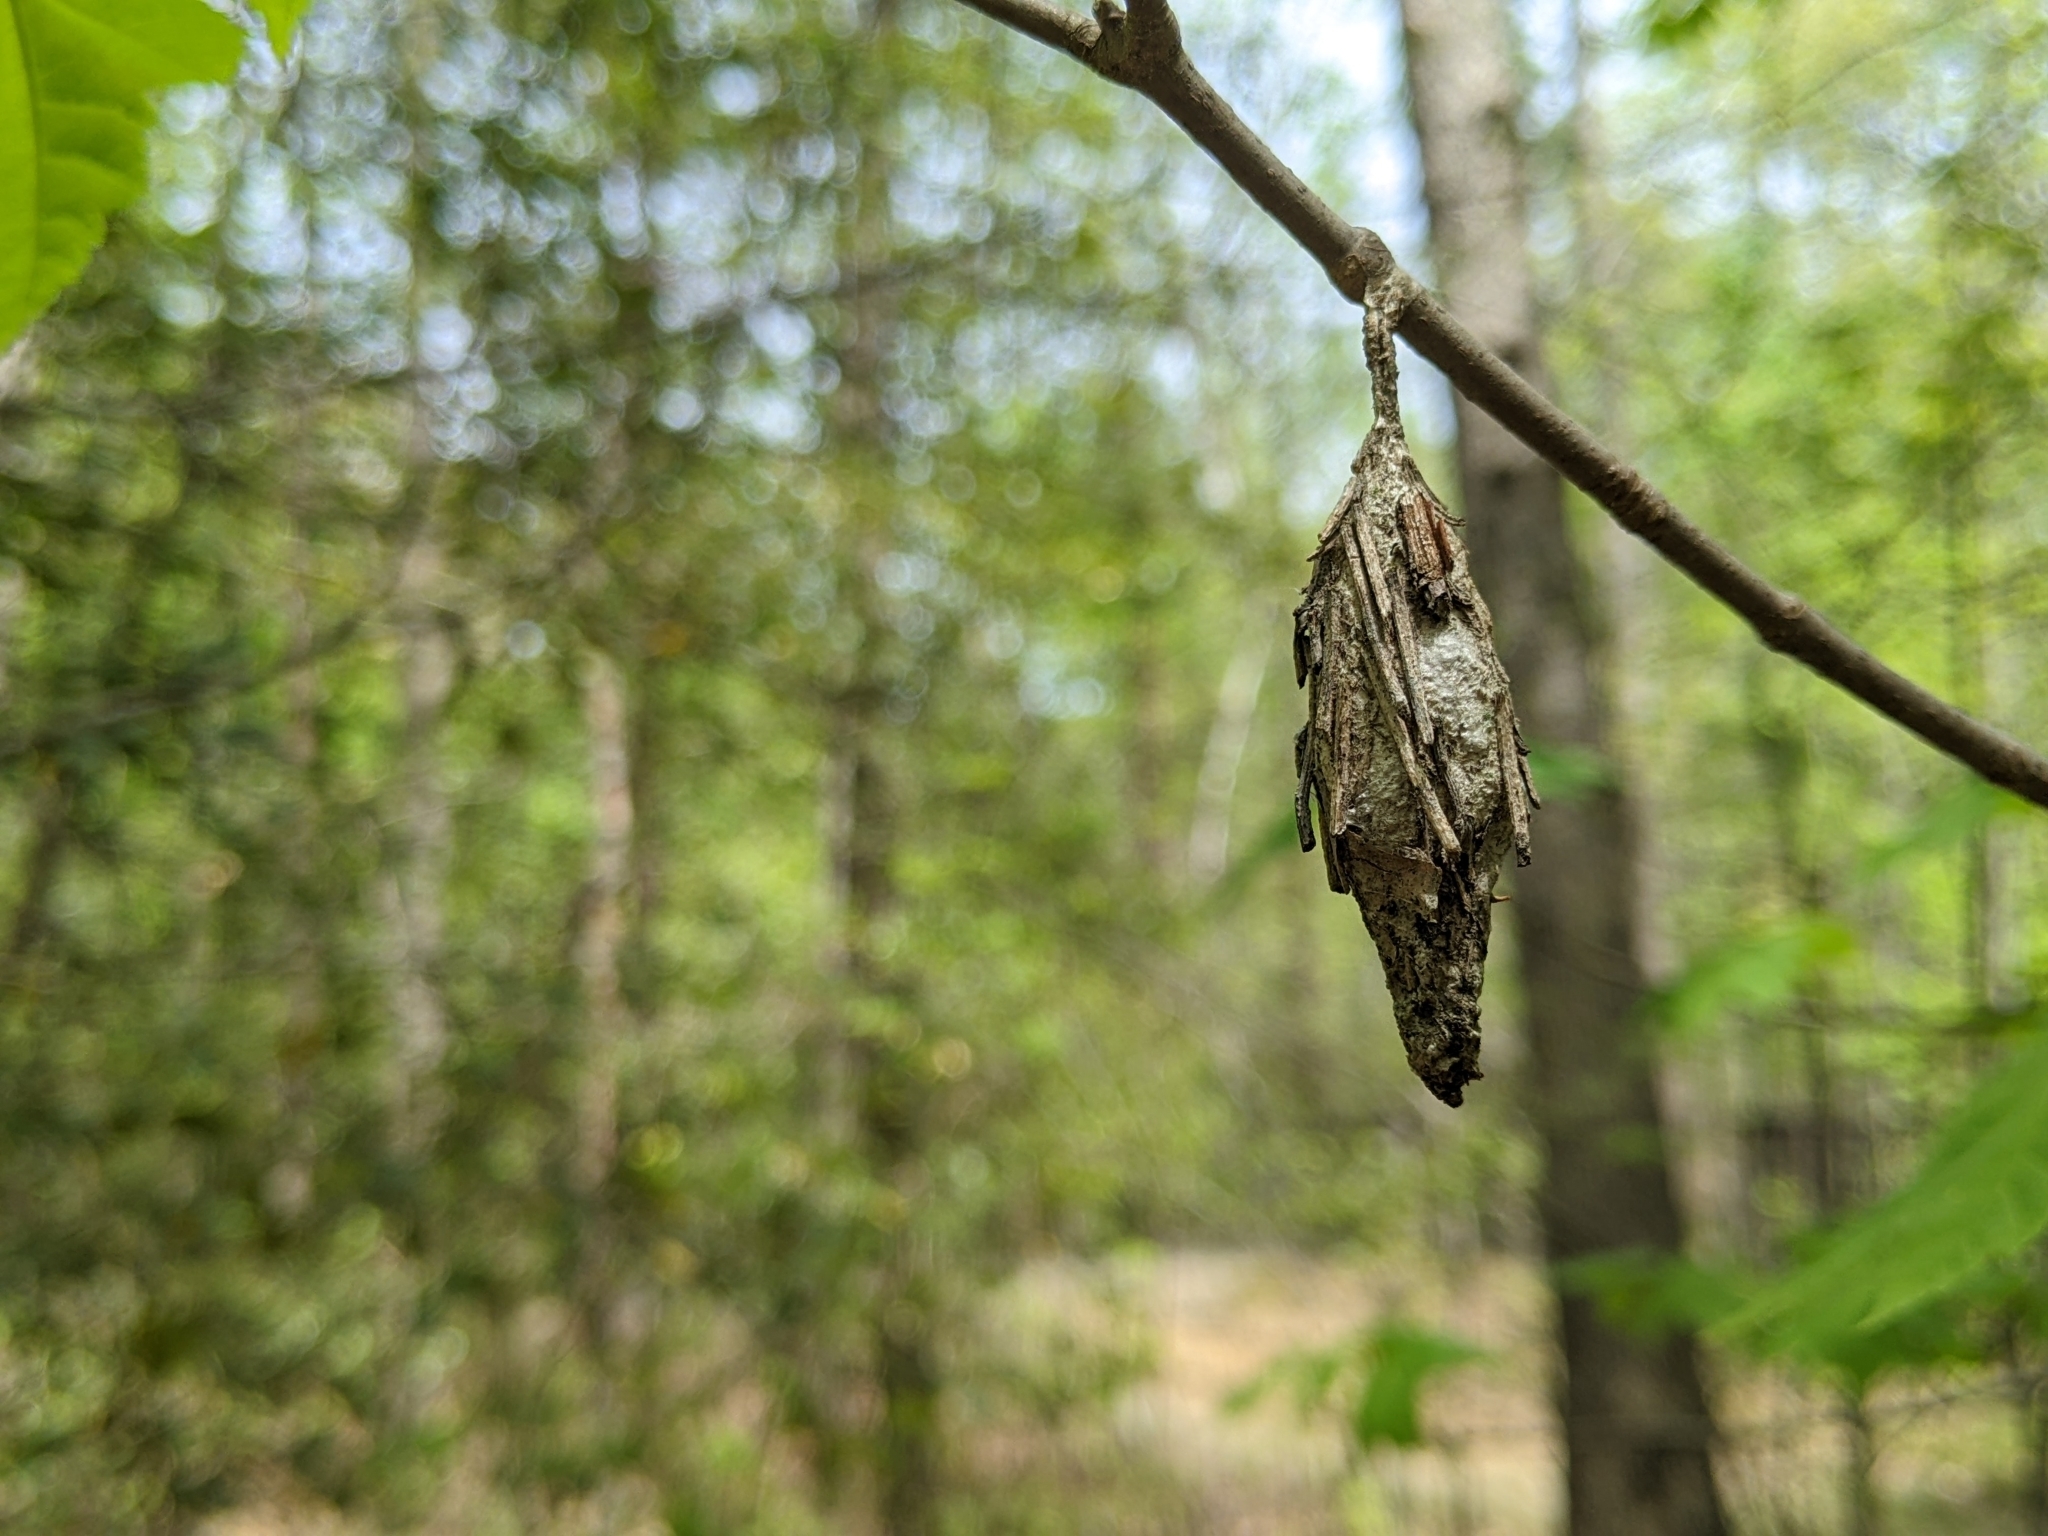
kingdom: Animalia
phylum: Arthropoda
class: Insecta
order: Lepidoptera
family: Psychidae
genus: Thyridopteryx
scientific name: Thyridopteryx ephemeraeformis
